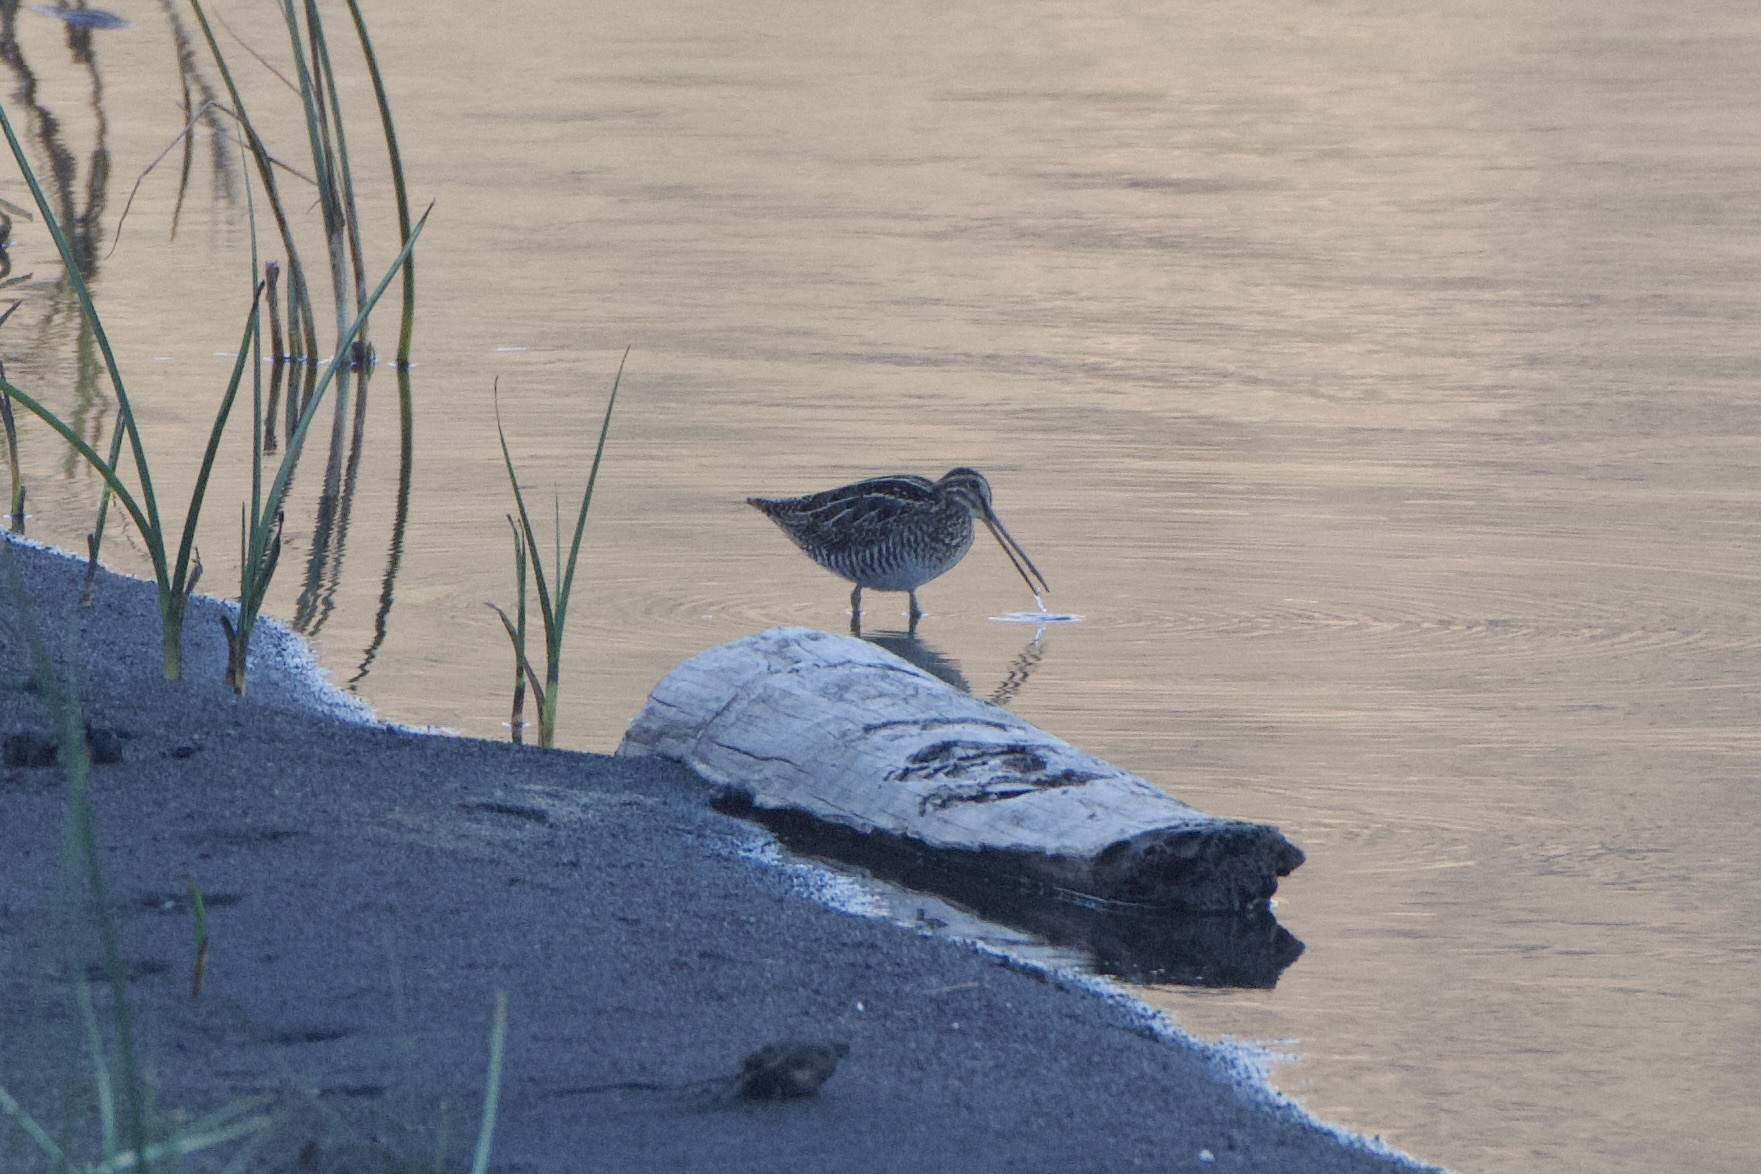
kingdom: Animalia
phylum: Chordata
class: Aves
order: Charadriiformes
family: Scolopacidae
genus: Gallinago
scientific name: Gallinago delicata
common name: Wilson's snipe
